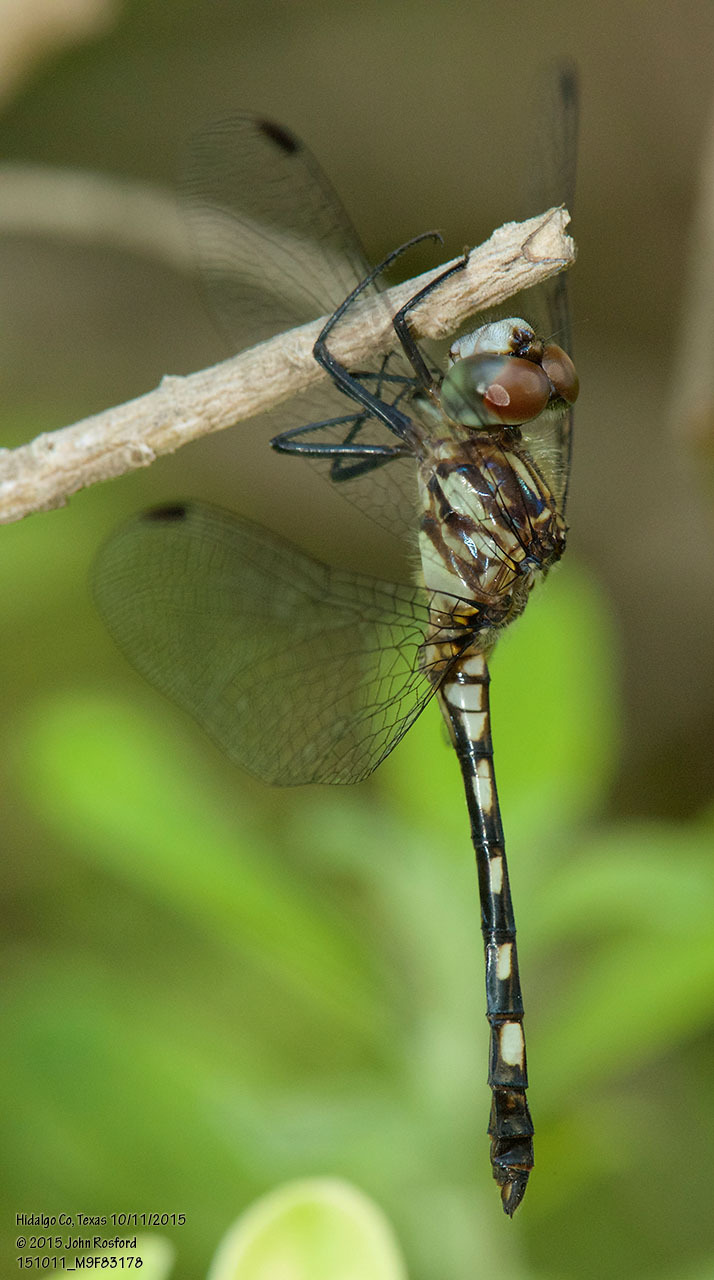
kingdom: Animalia
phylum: Arthropoda
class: Insecta
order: Odonata
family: Libellulidae
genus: Micrathyria
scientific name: Micrathyria hagenii
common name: Thornbush dasher
